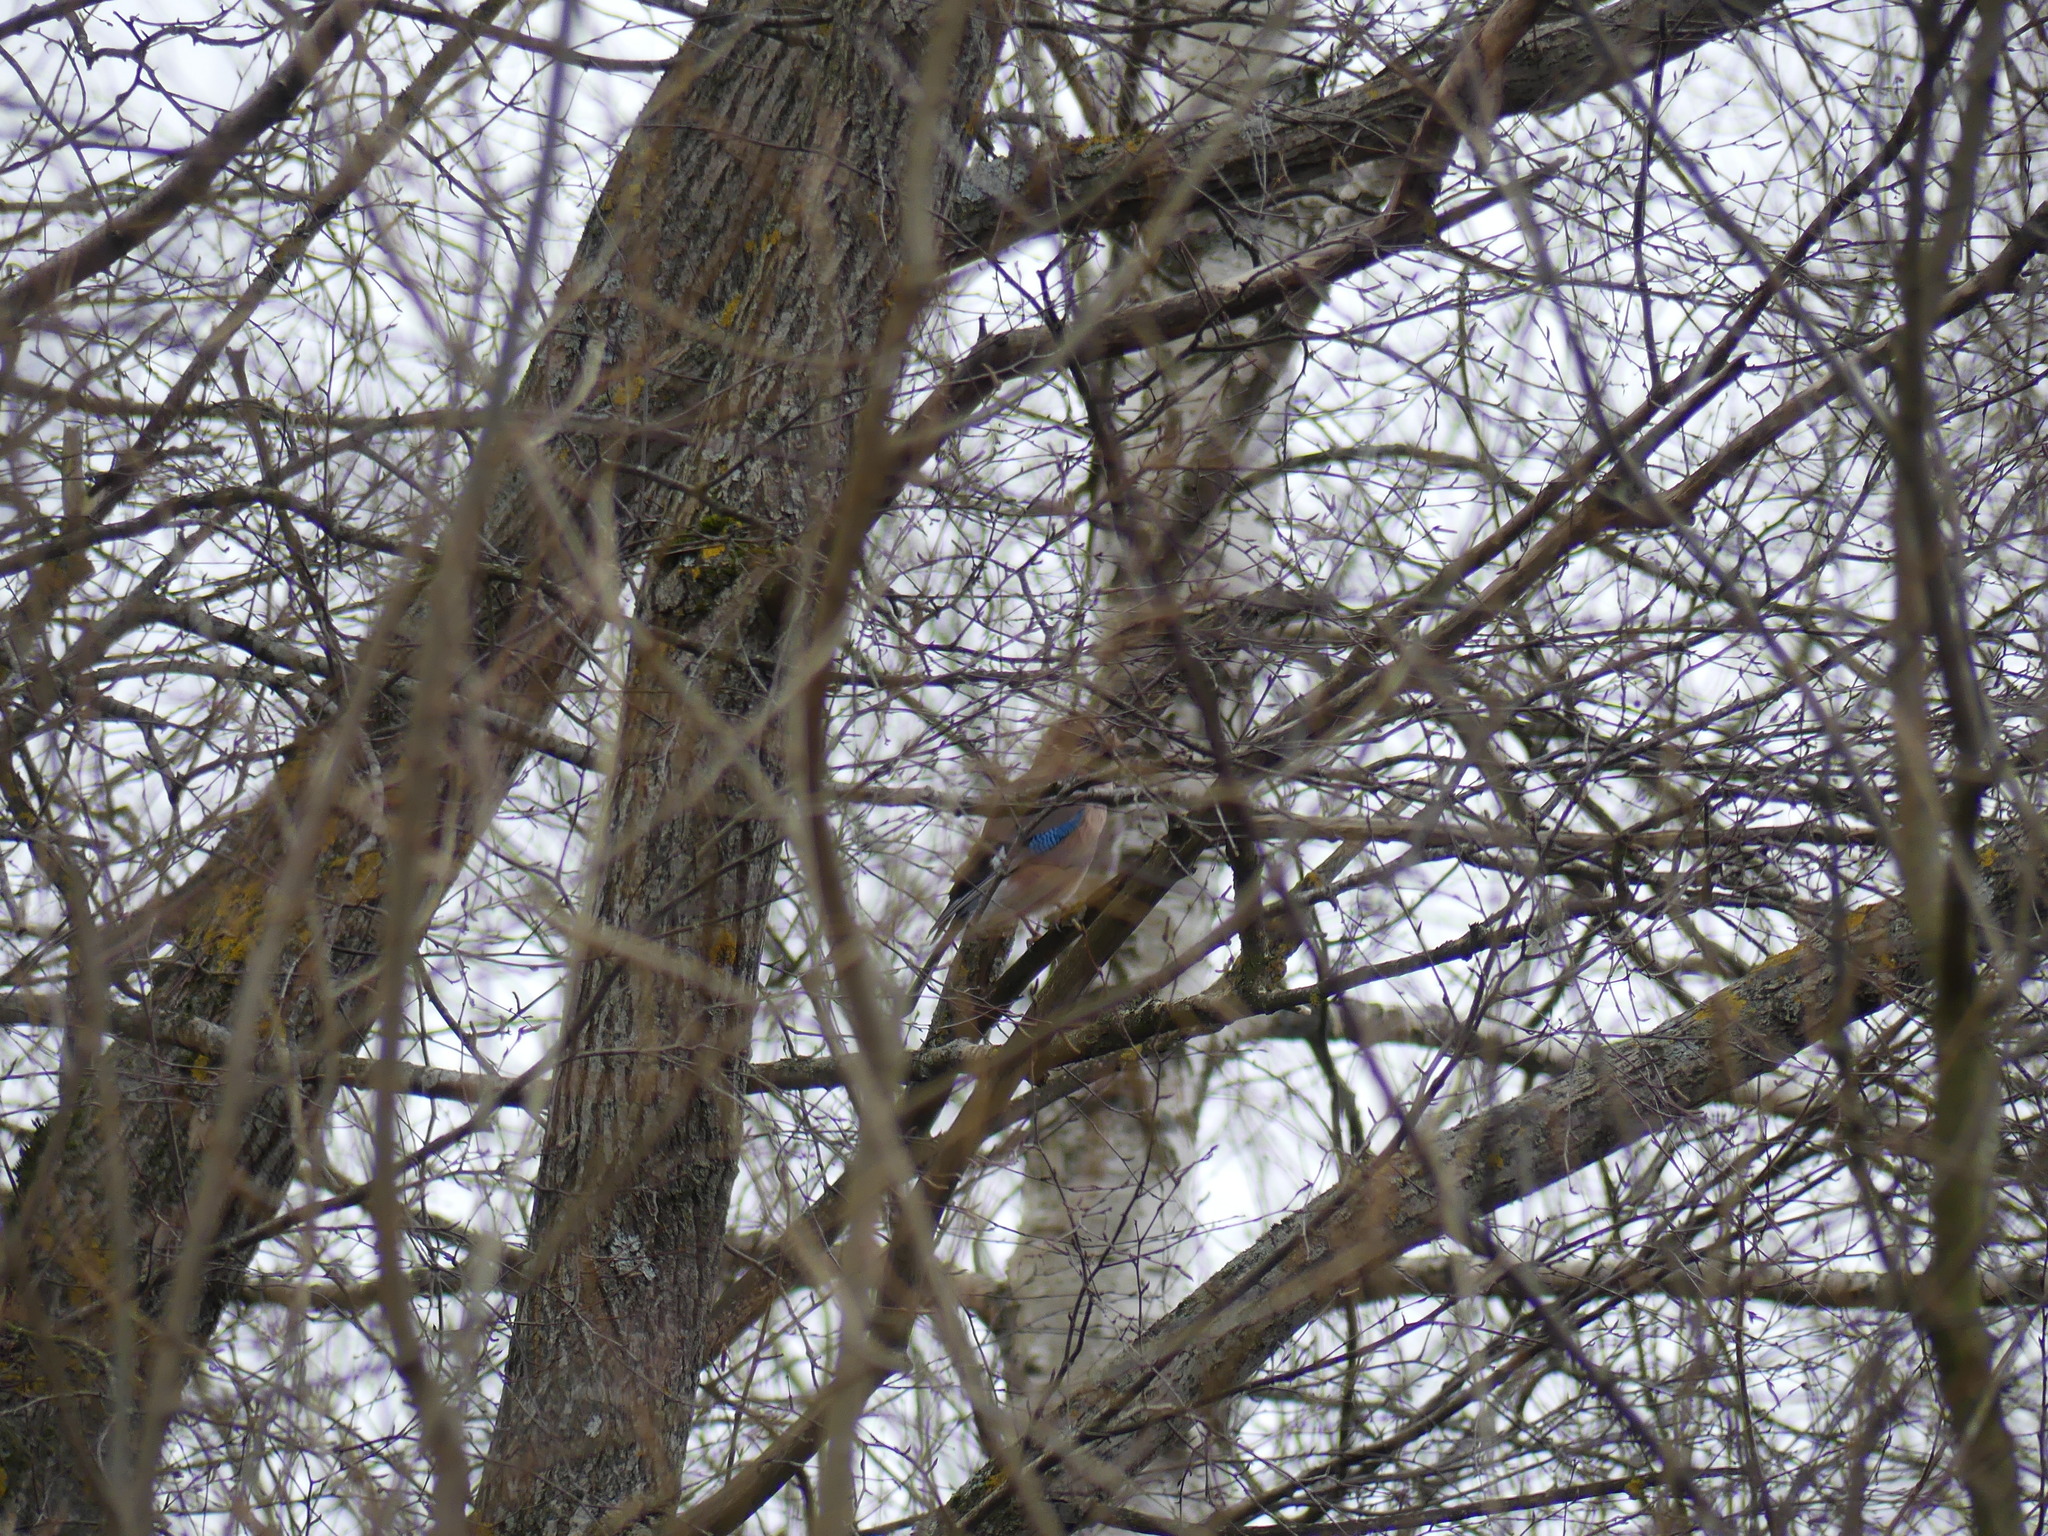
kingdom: Animalia
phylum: Chordata
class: Aves
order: Passeriformes
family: Corvidae
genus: Garrulus
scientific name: Garrulus glandarius
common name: Eurasian jay
